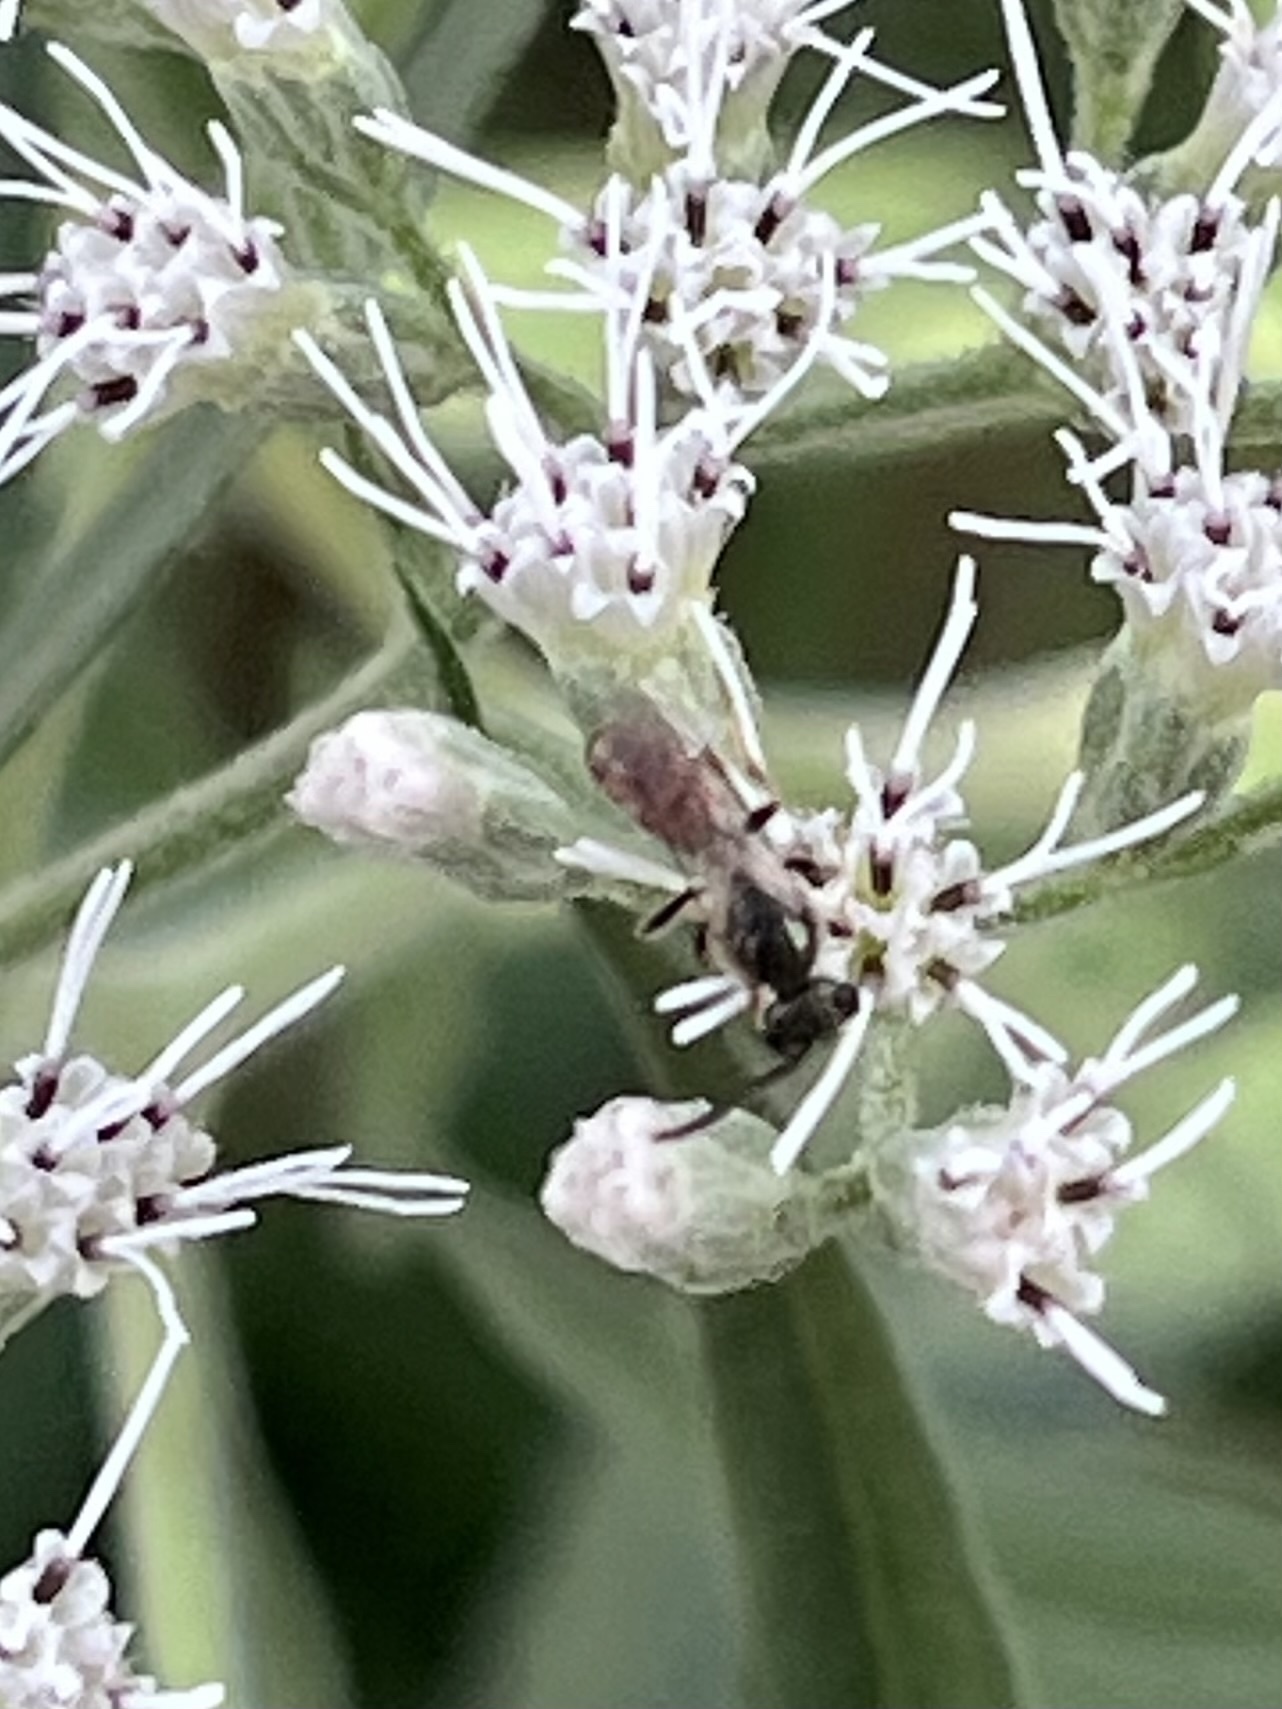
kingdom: Animalia
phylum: Arthropoda
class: Insecta
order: Hymenoptera
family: Halictidae
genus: Lasioglossum
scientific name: Lasioglossum zephyrum
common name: Zephyr sweat bee
